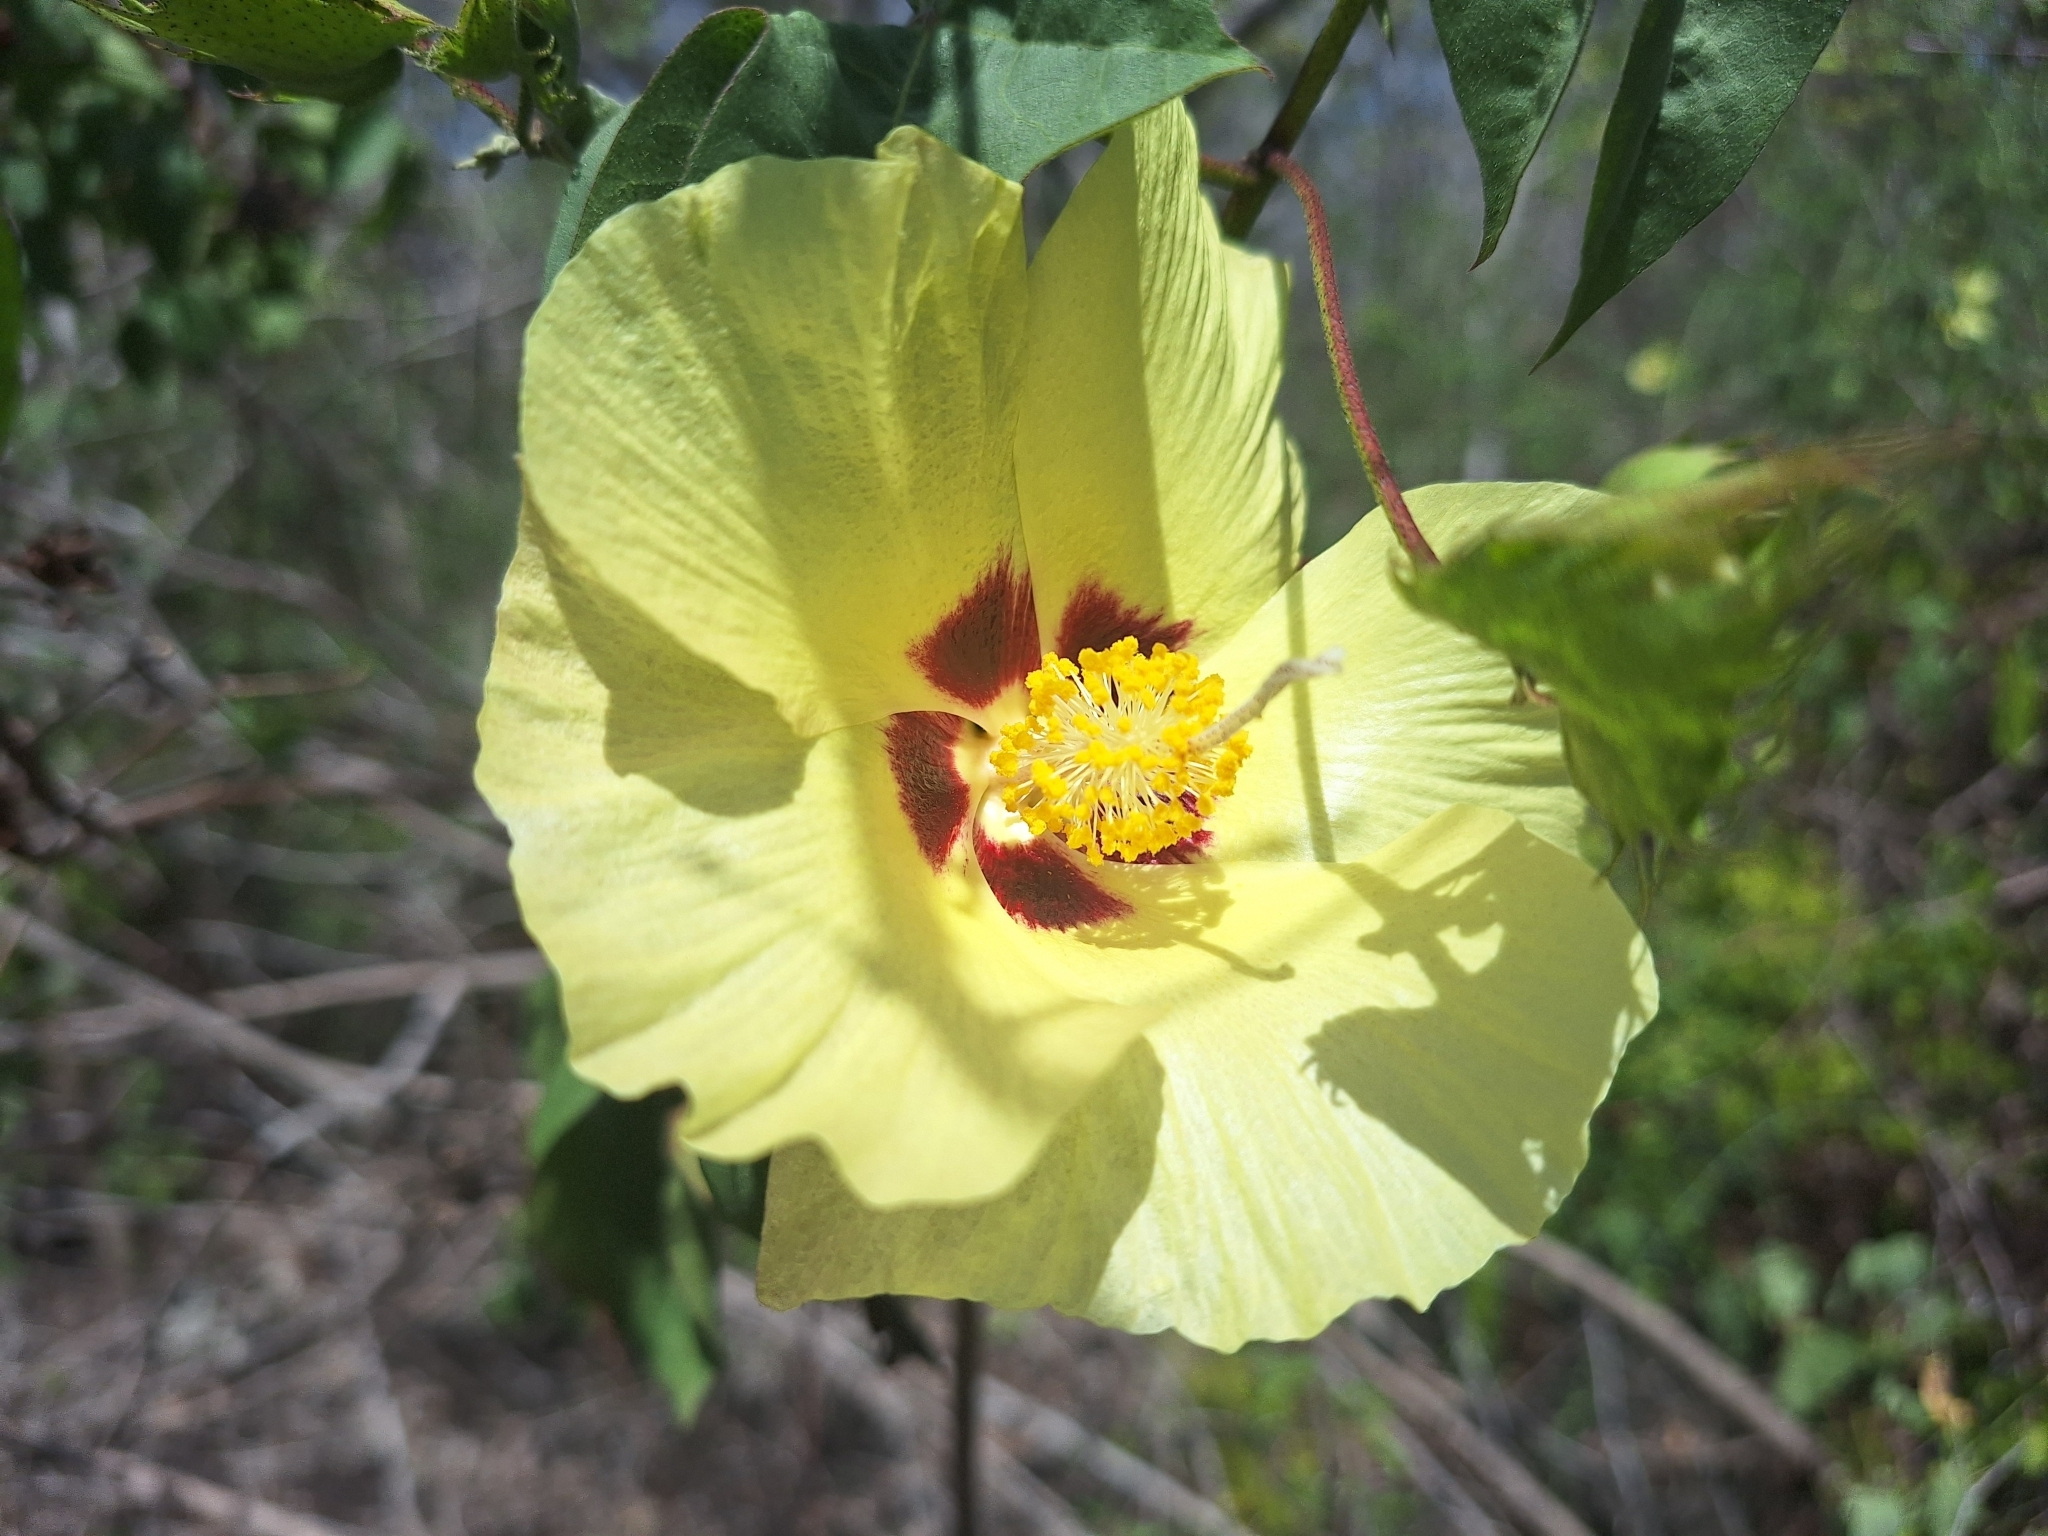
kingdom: Plantae
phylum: Tracheophyta
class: Magnoliopsida
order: Malvales
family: Malvaceae
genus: Gossypium
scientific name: Gossypium darwinii
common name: Darwin's cotton
